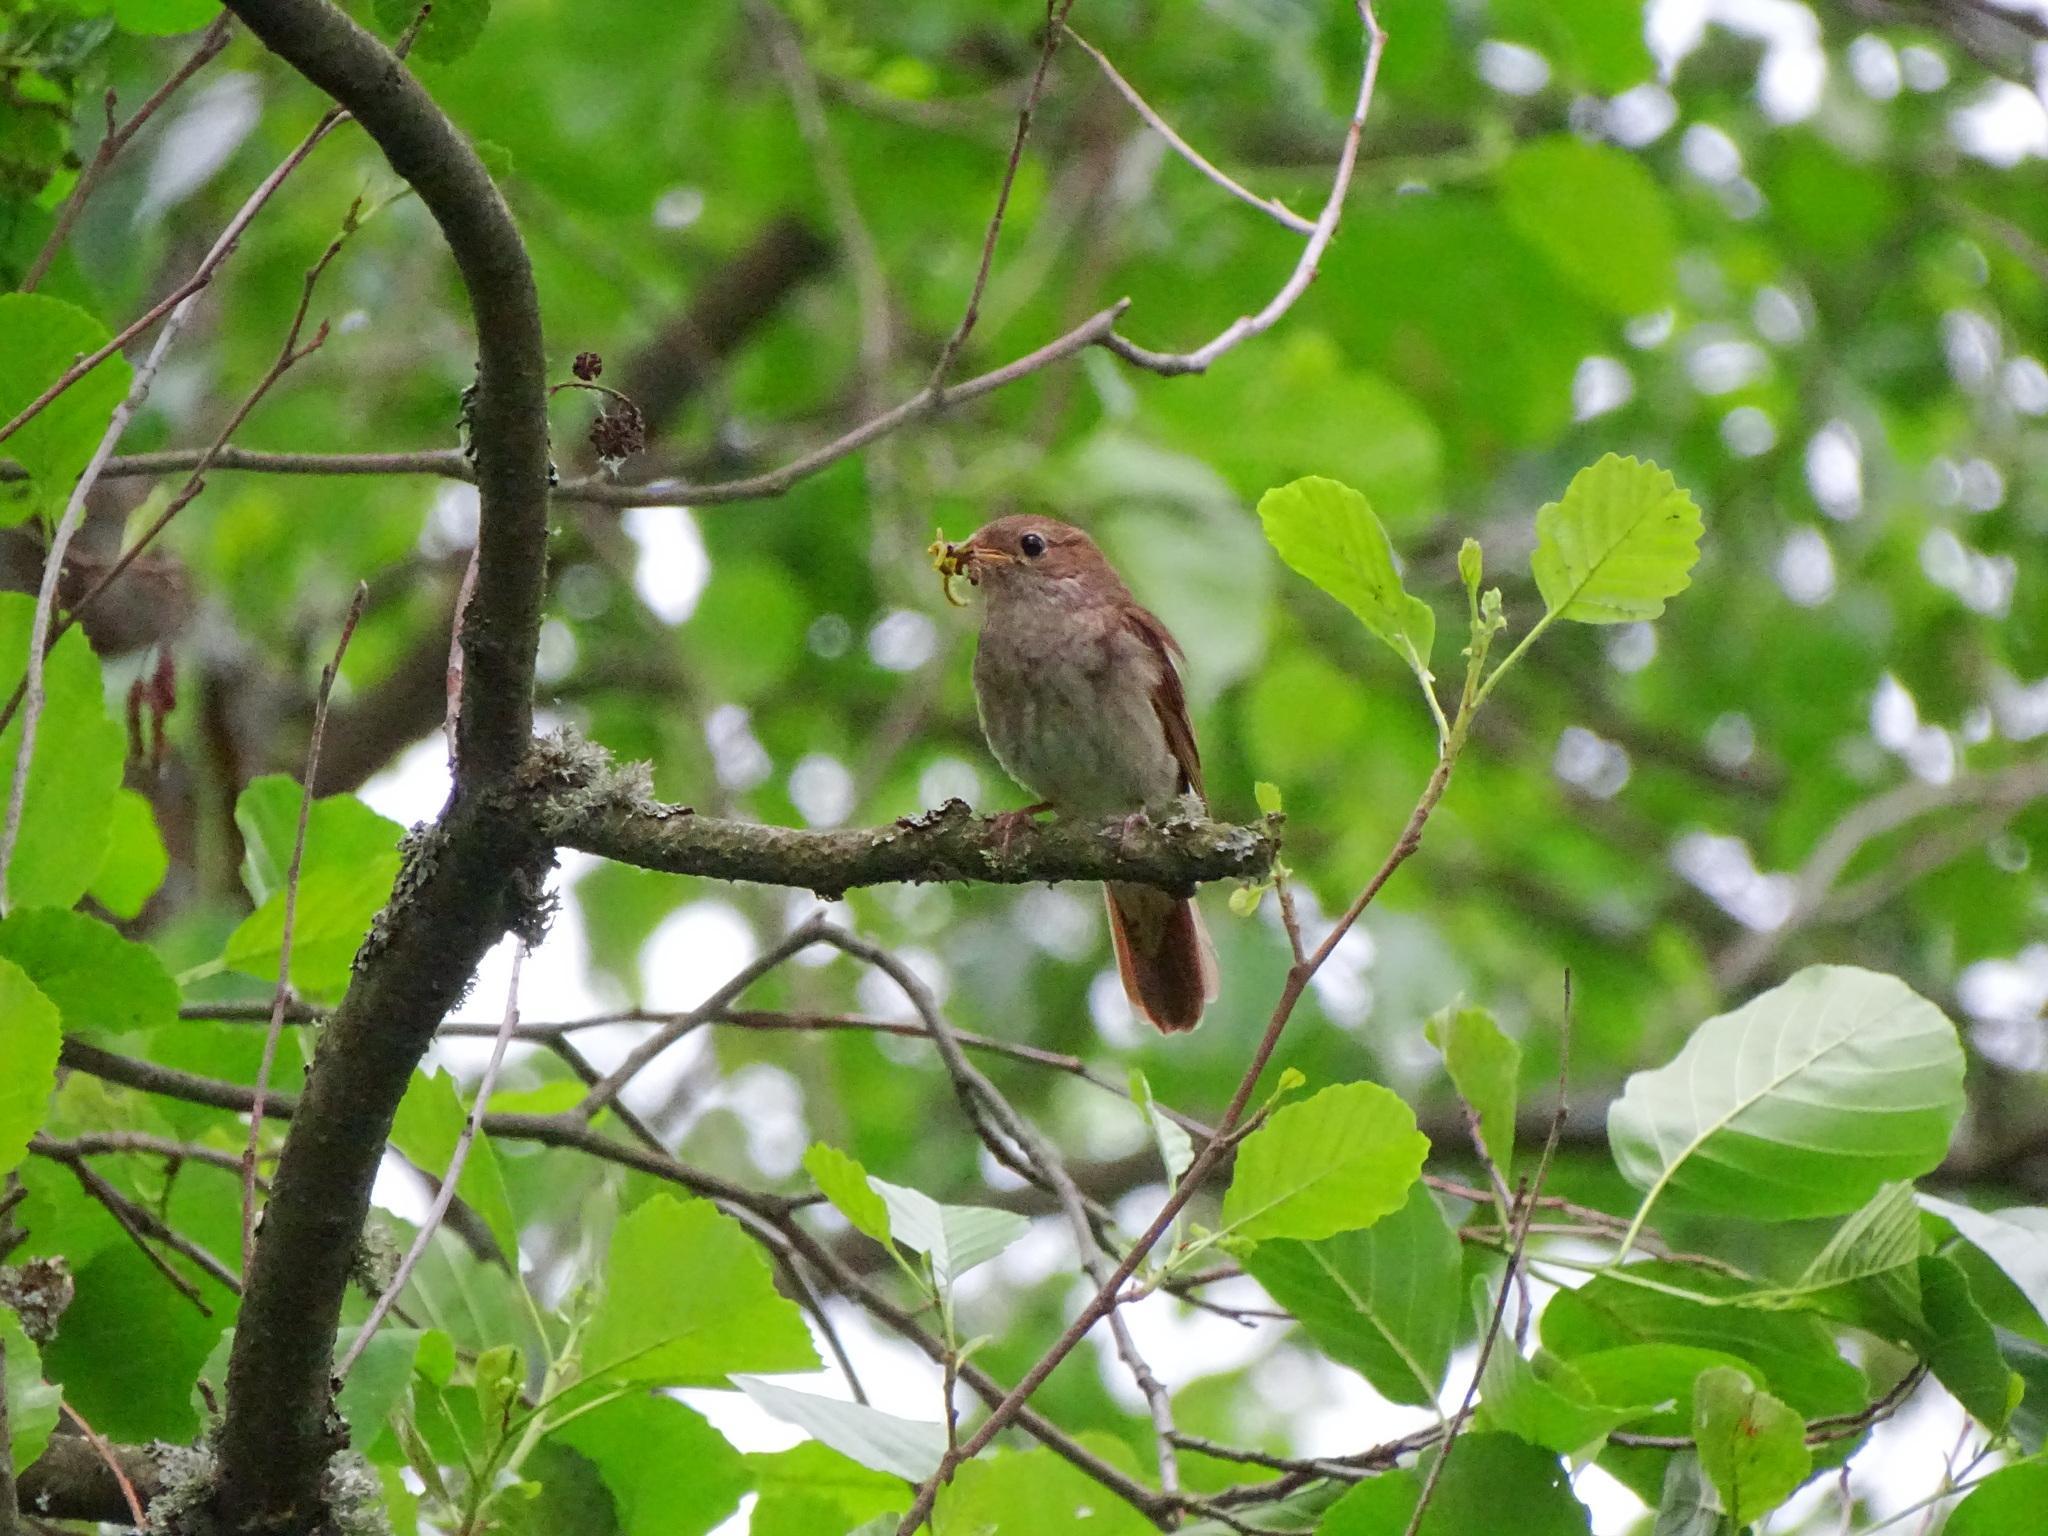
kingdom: Animalia
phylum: Chordata
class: Aves
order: Passeriformes
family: Muscicapidae
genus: Luscinia
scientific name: Luscinia luscinia
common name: Thrush nightingale
